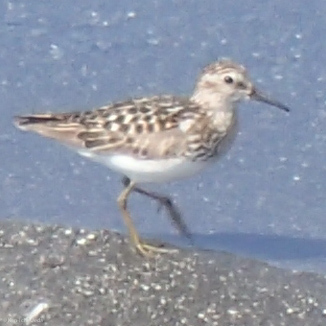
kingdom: Animalia
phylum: Chordata
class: Aves
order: Charadriiformes
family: Scolopacidae
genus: Calidris
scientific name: Calidris minutilla
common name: Least sandpiper
